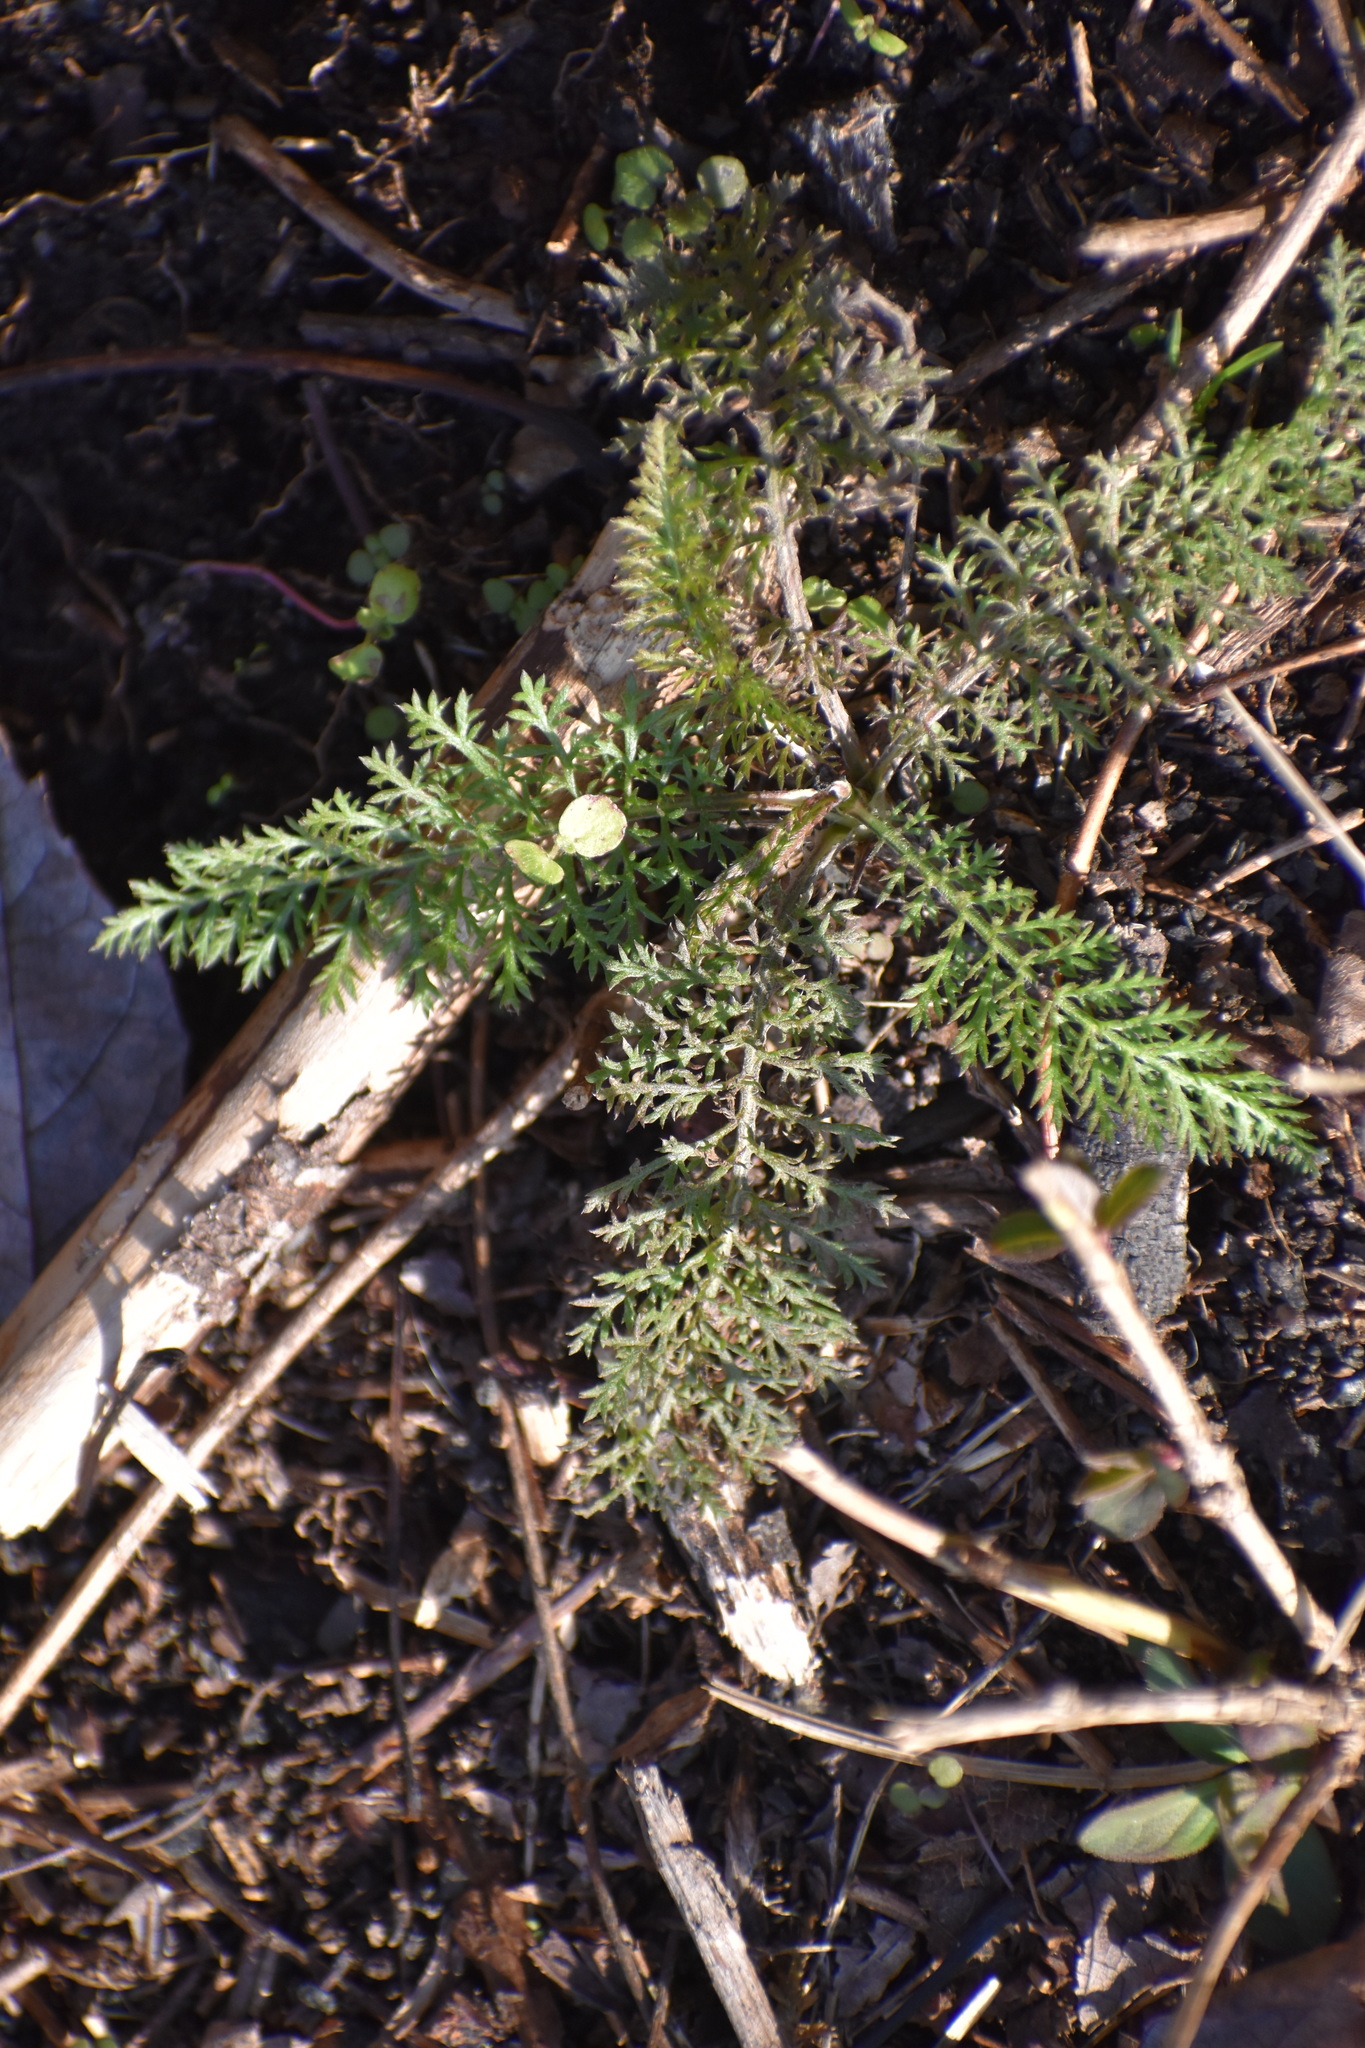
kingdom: Plantae
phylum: Tracheophyta
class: Magnoliopsida
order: Asterales
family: Asteraceae
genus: Achillea
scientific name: Achillea millefolium
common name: Yarrow
